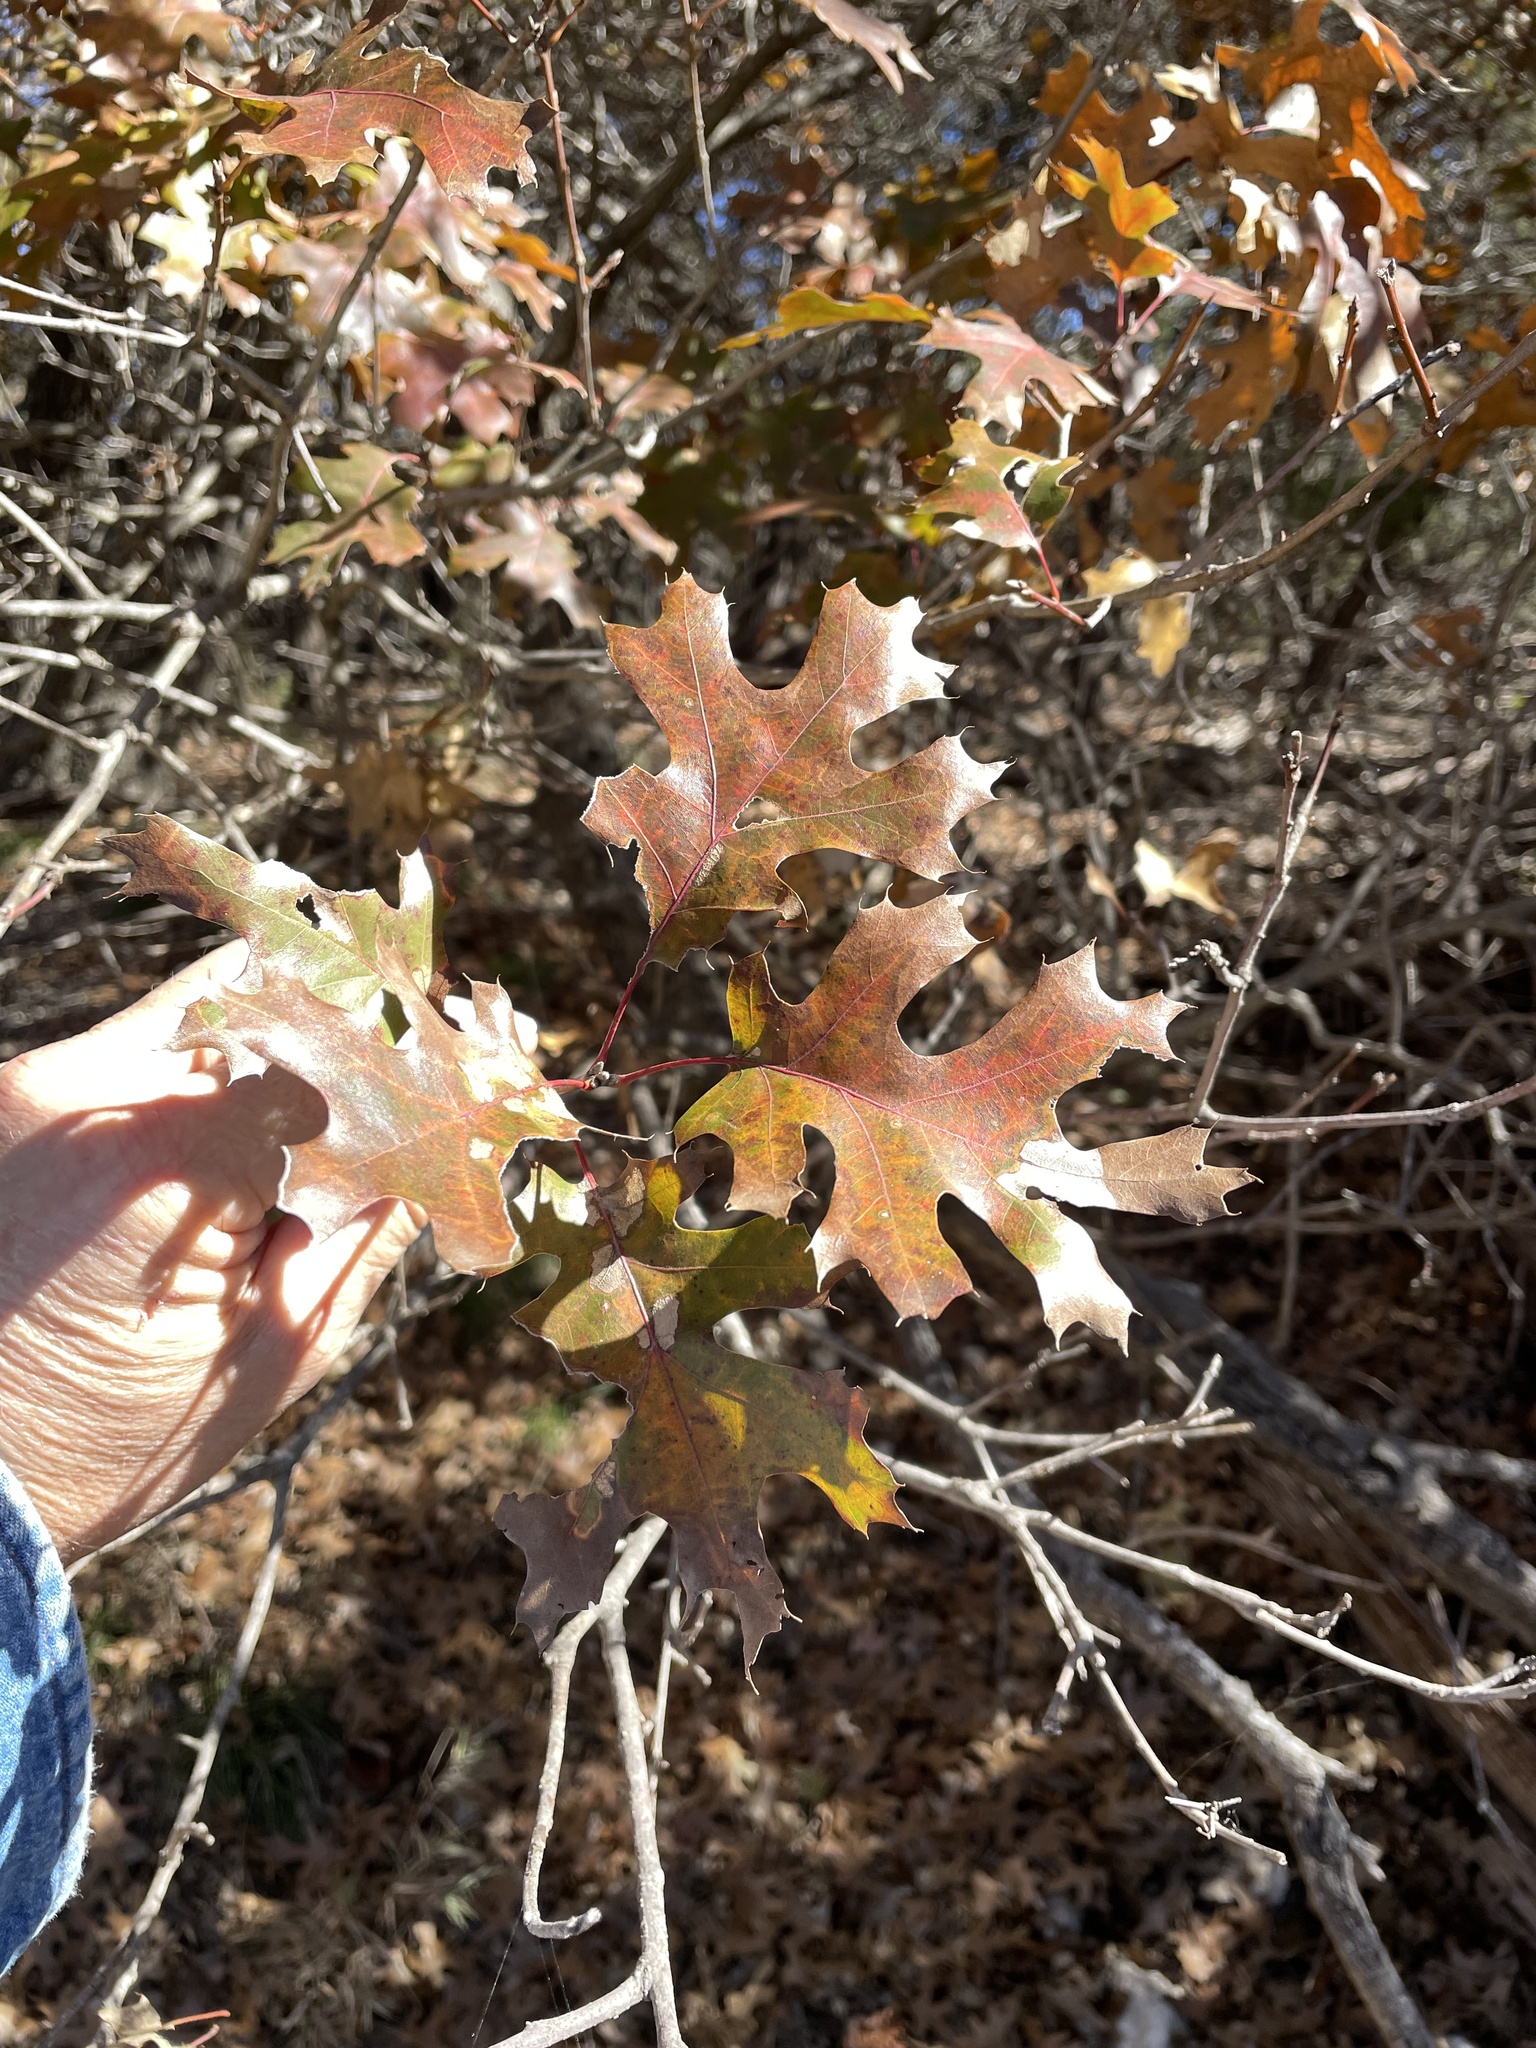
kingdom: Plantae
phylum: Tracheophyta
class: Magnoliopsida
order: Fagales
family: Fagaceae
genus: Quercus
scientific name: Quercus buckleyi
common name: Buckley oak
